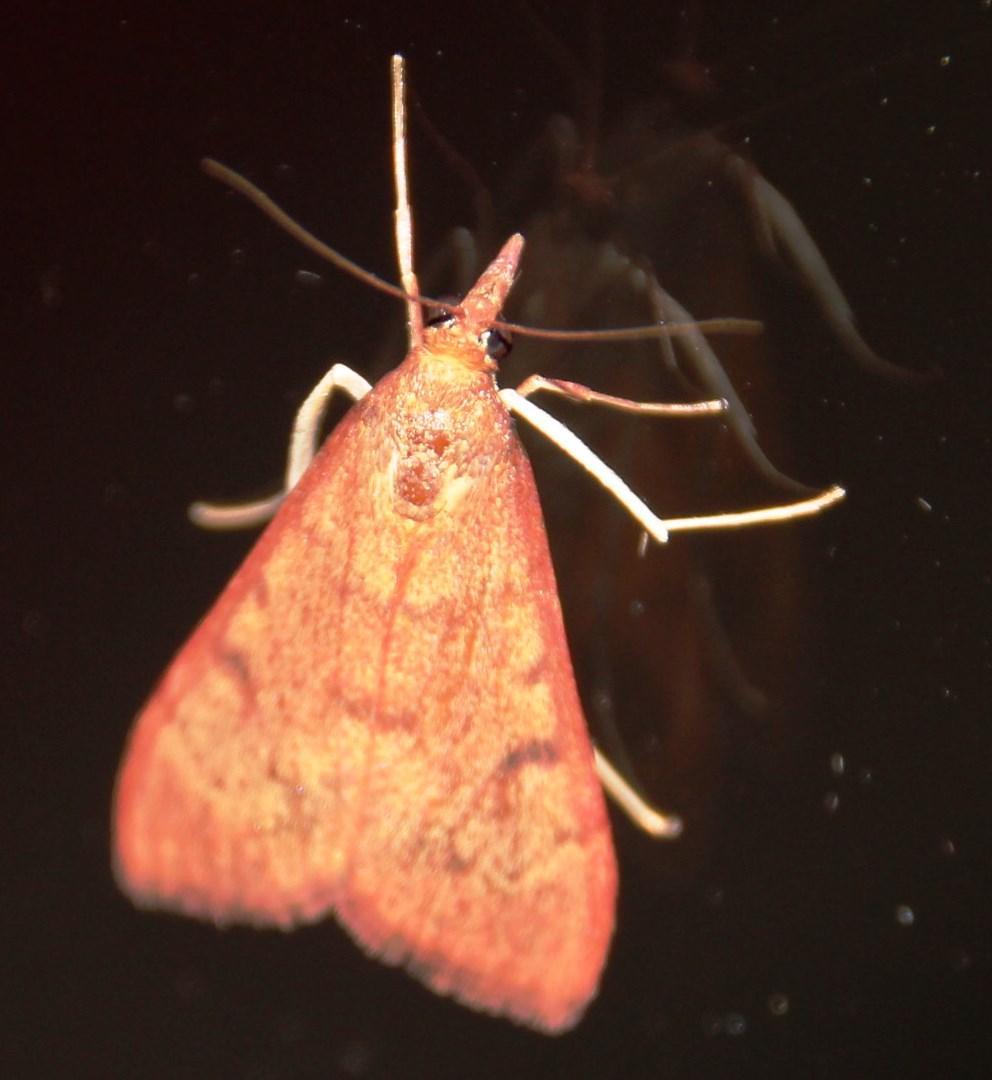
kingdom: Animalia
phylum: Arthropoda
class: Insecta
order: Lepidoptera
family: Crambidae
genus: Uresiphita
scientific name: Uresiphita gilvata
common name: Yellow-underwing pearl
